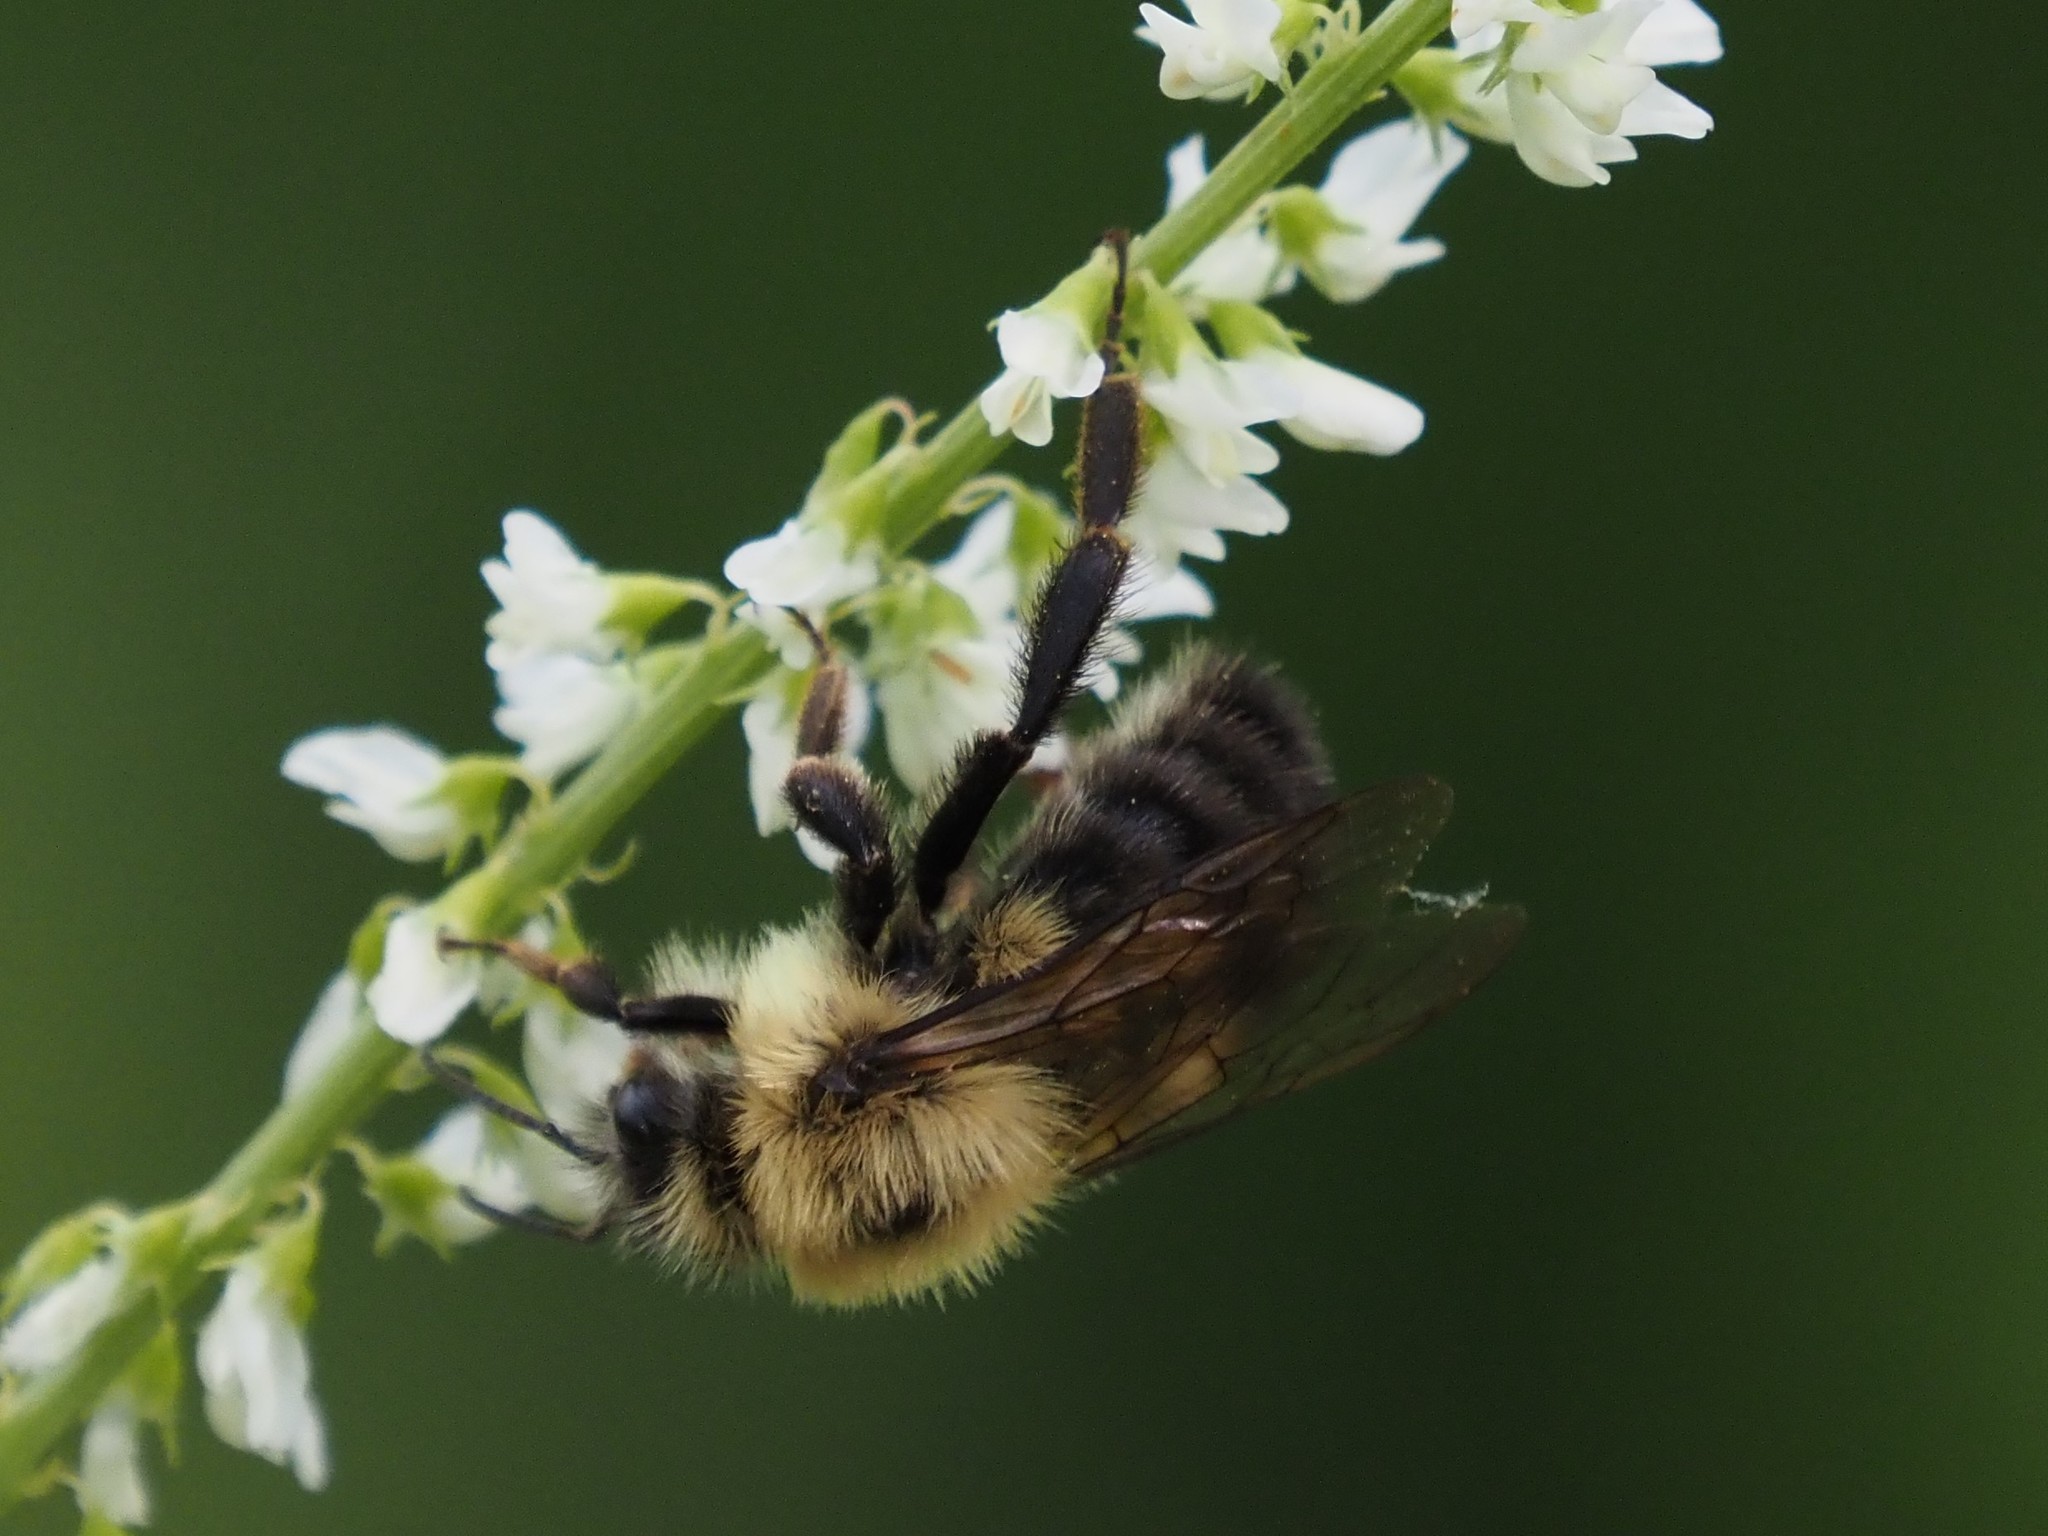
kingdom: Animalia
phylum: Arthropoda
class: Insecta
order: Hymenoptera
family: Apidae
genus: Bombus
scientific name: Bombus bimaculatus
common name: Two-spotted bumble bee
